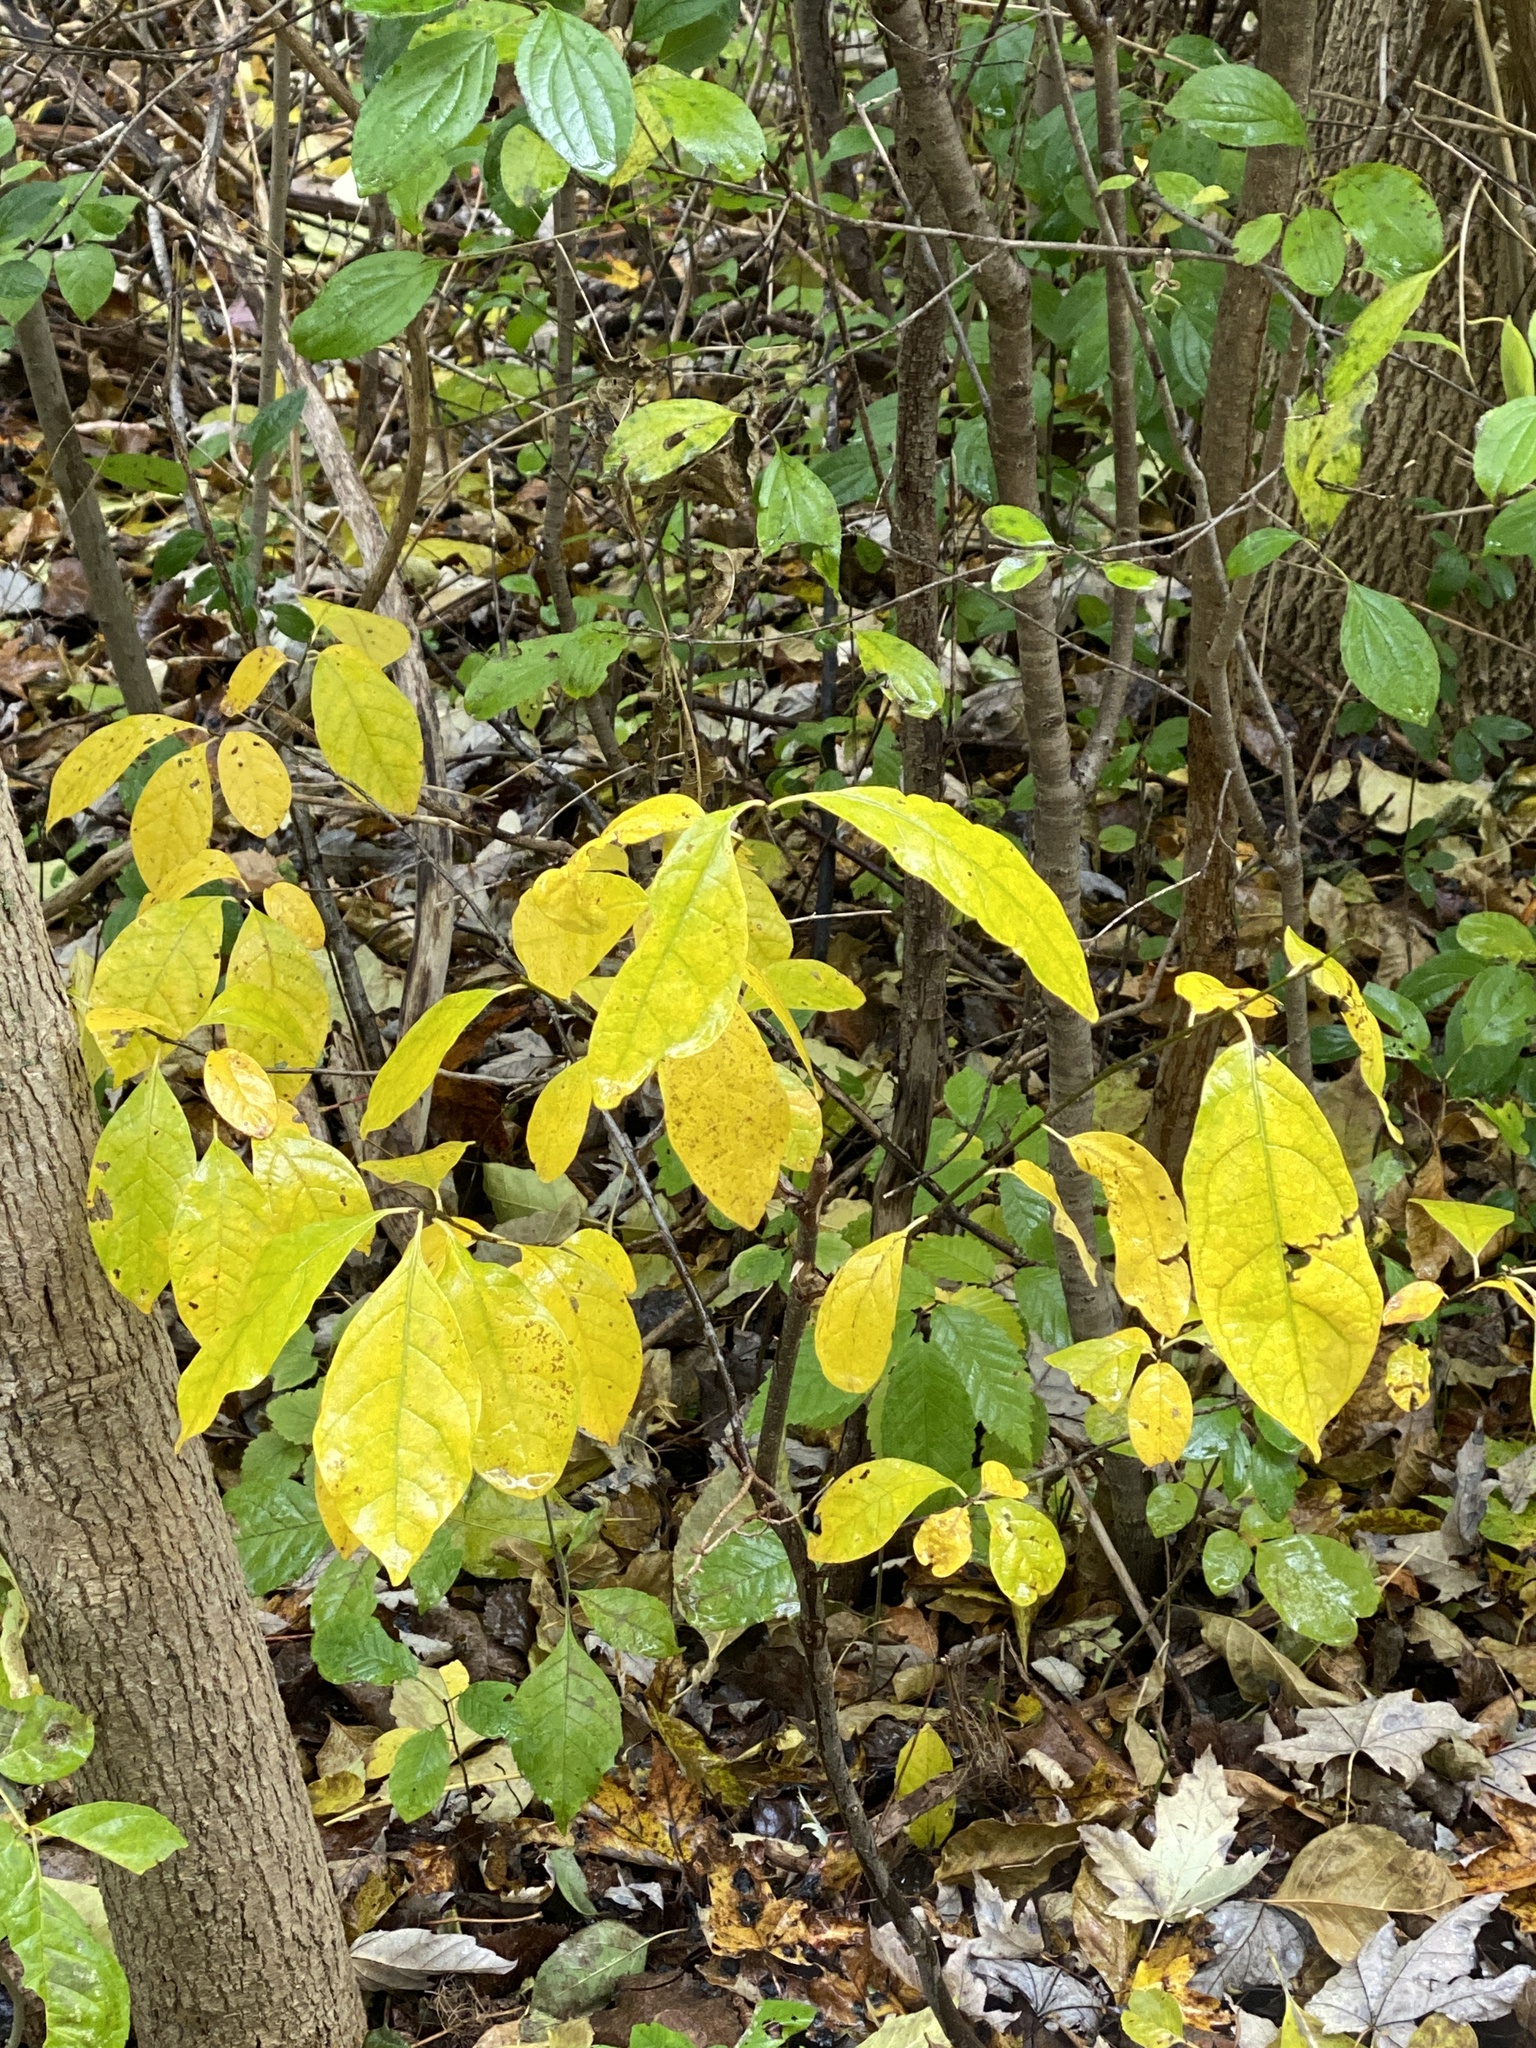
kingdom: Plantae
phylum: Tracheophyta
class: Magnoliopsida
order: Laurales
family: Lauraceae
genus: Lindera
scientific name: Lindera benzoin
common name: Spicebush
